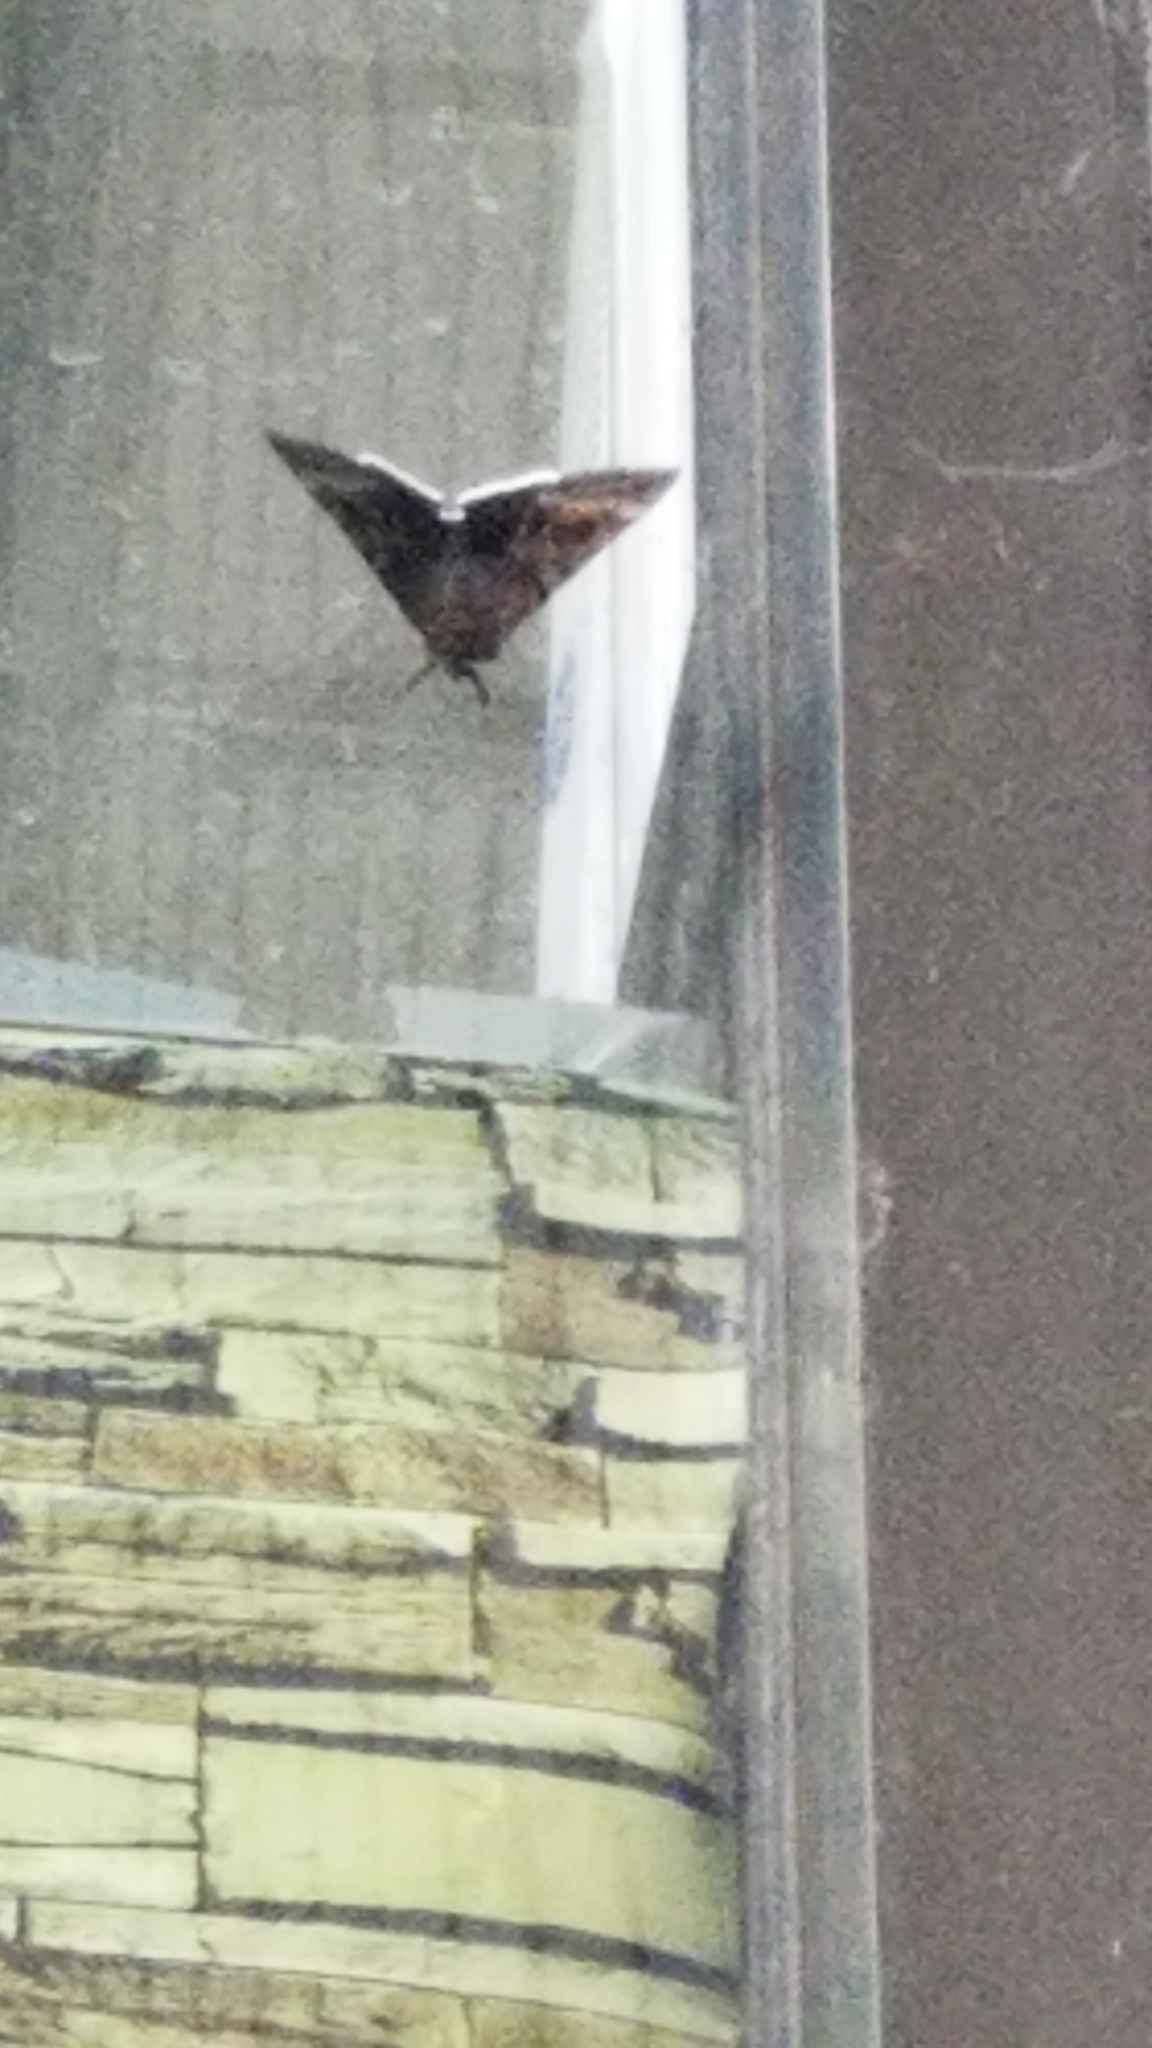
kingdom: Animalia
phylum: Arthropoda
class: Insecta
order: Lepidoptera
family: Erebidae
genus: Catocala
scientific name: Catocala epione
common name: Epione underwing
